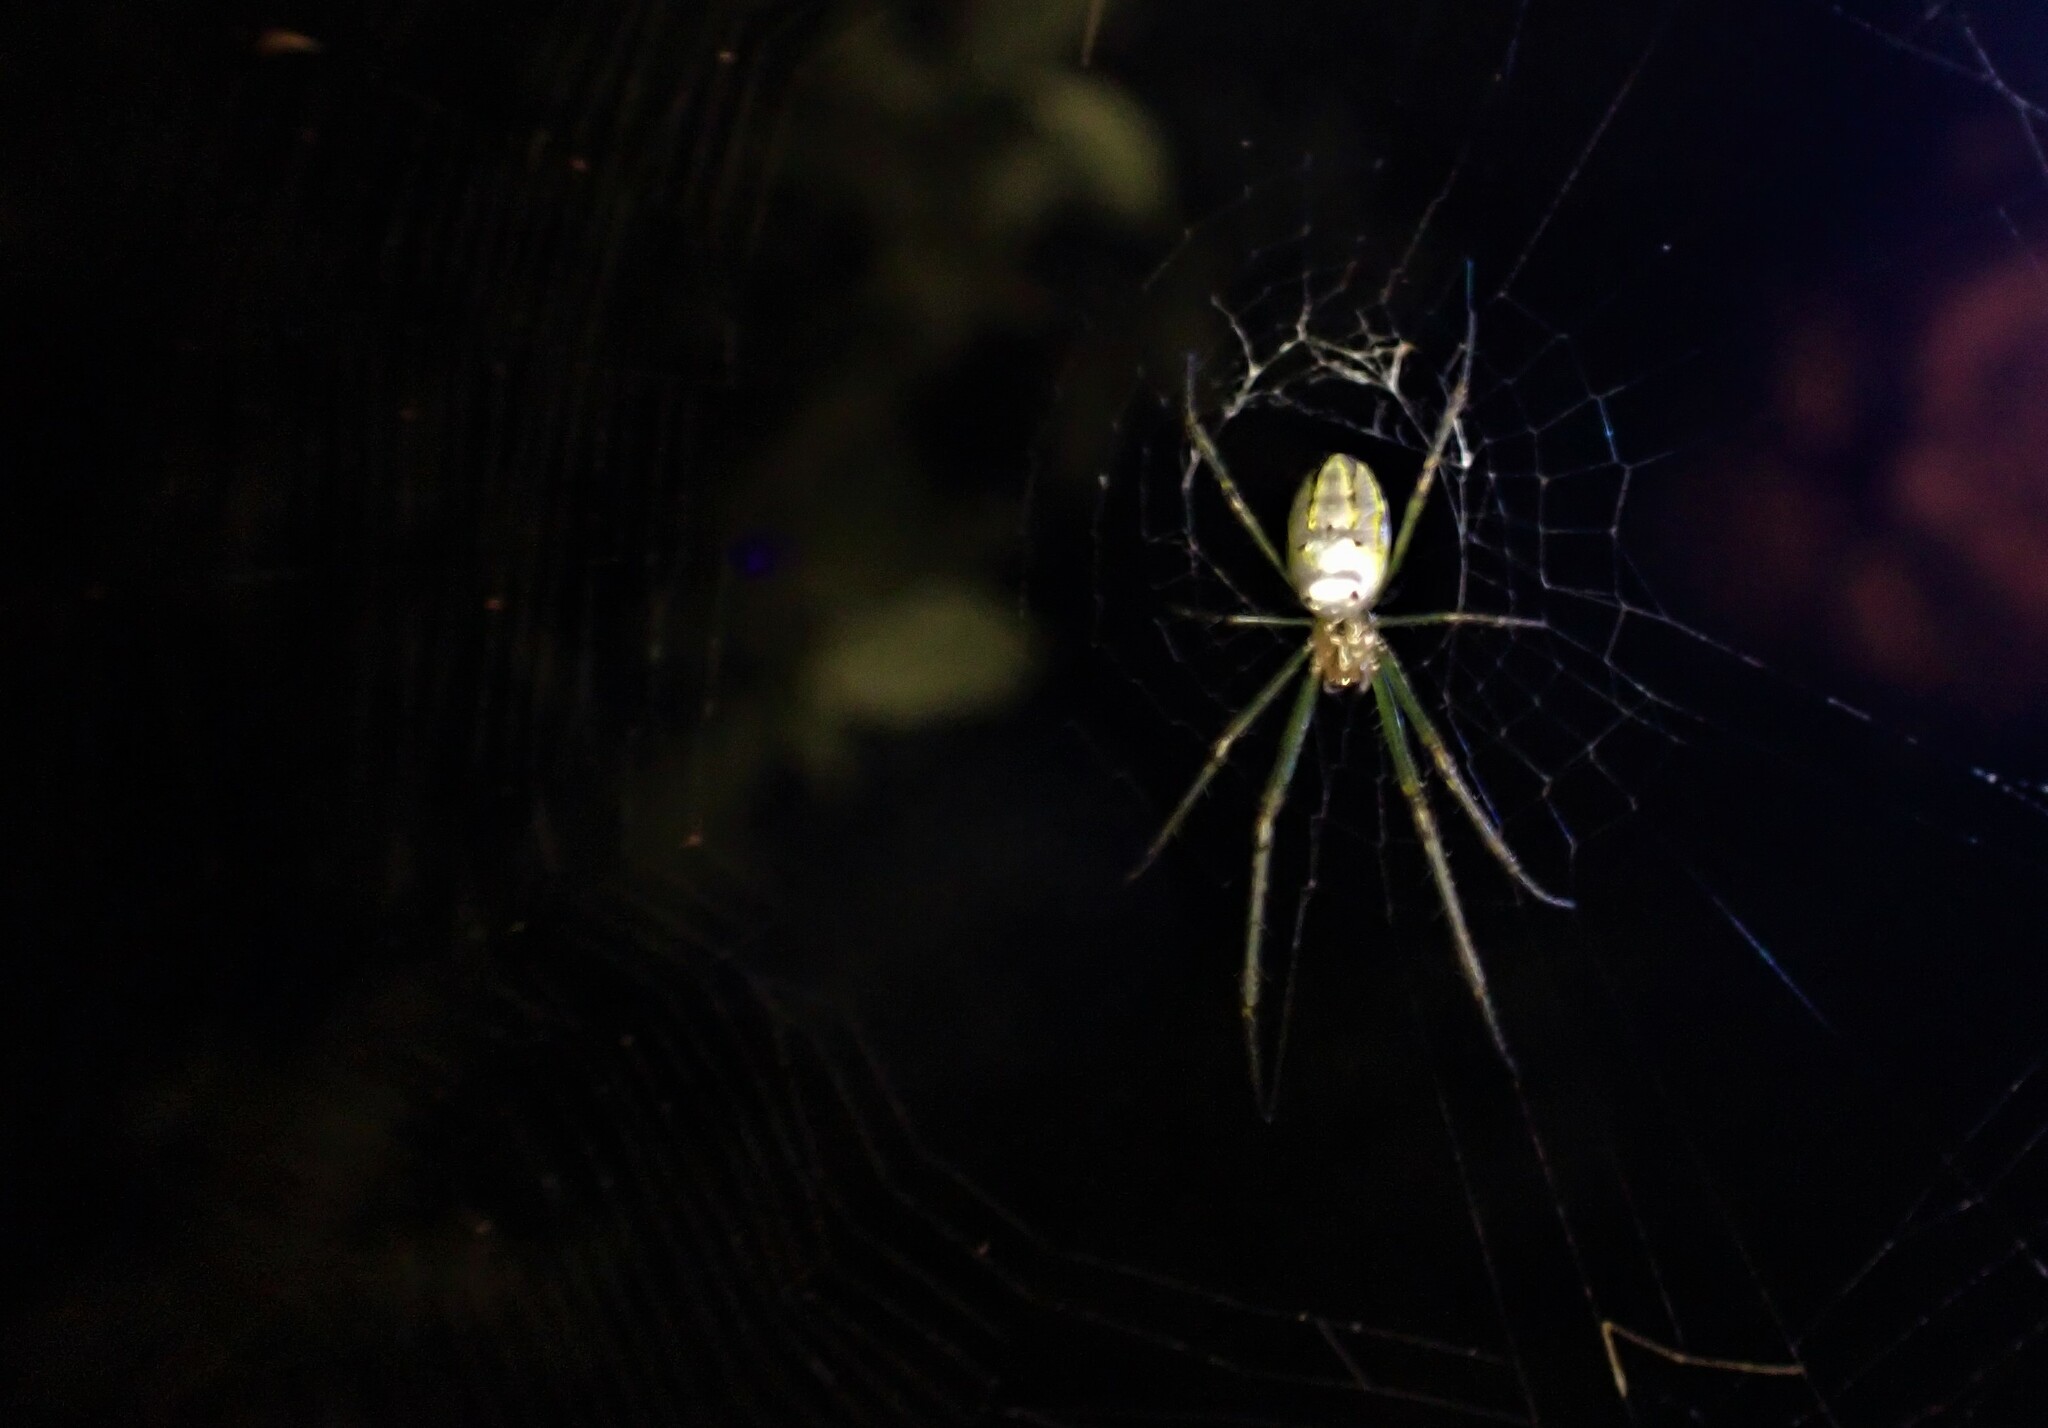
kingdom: Animalia
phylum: Arthropoda
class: Arachnida
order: Araneae
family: Tetragnathidae
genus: Leucauge
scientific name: Leucauge dromedaria
